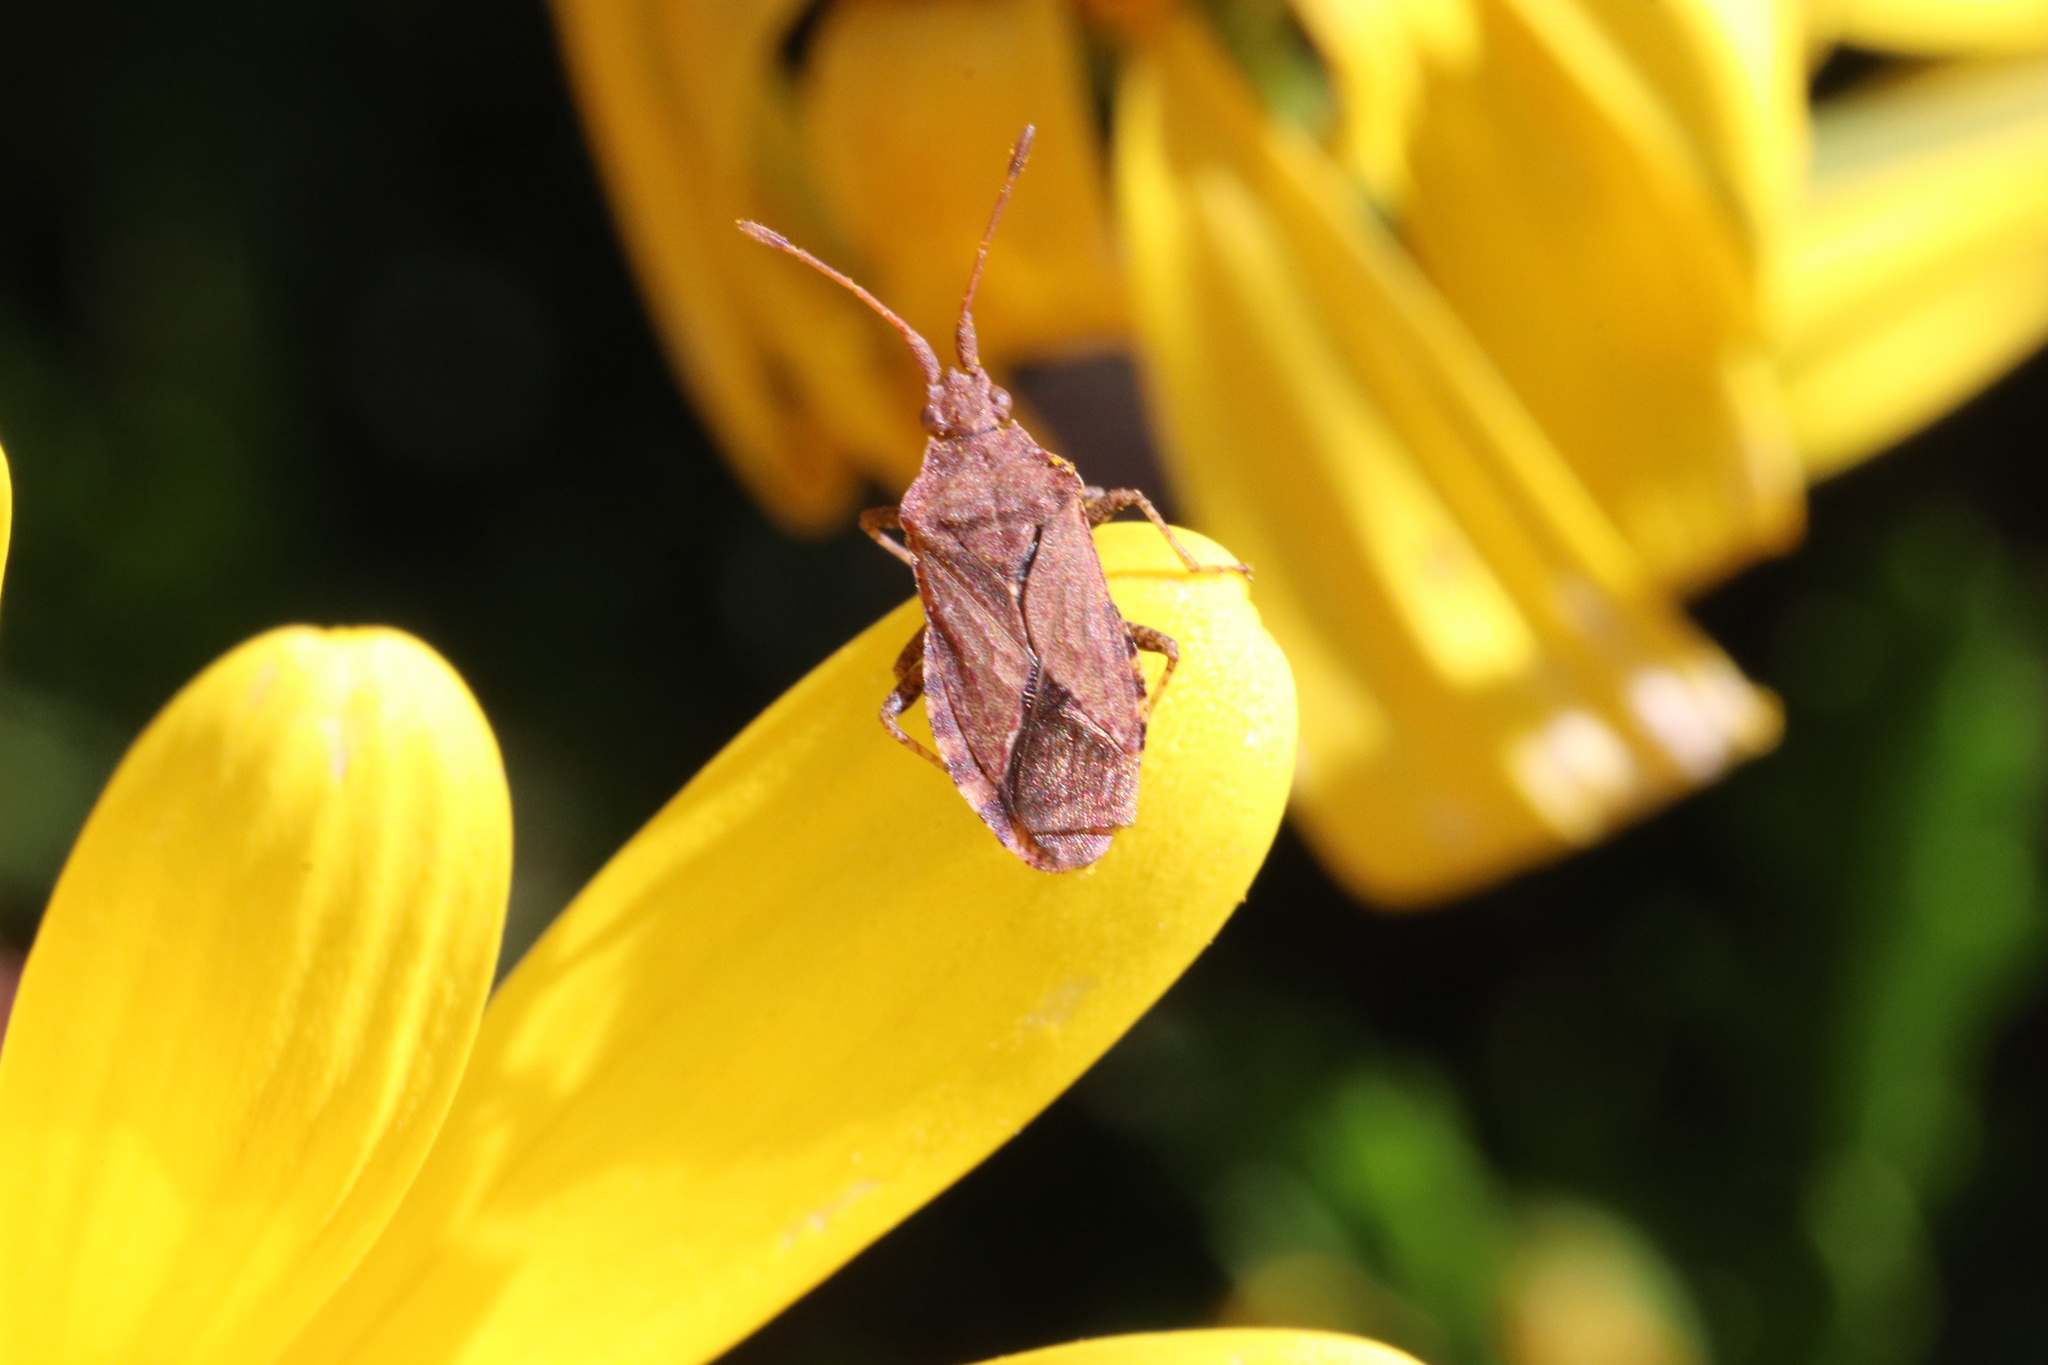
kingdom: Animalia
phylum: Arthropoda
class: Insecta
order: Hemiptera
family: Coreidae
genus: Althos
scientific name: Althos
